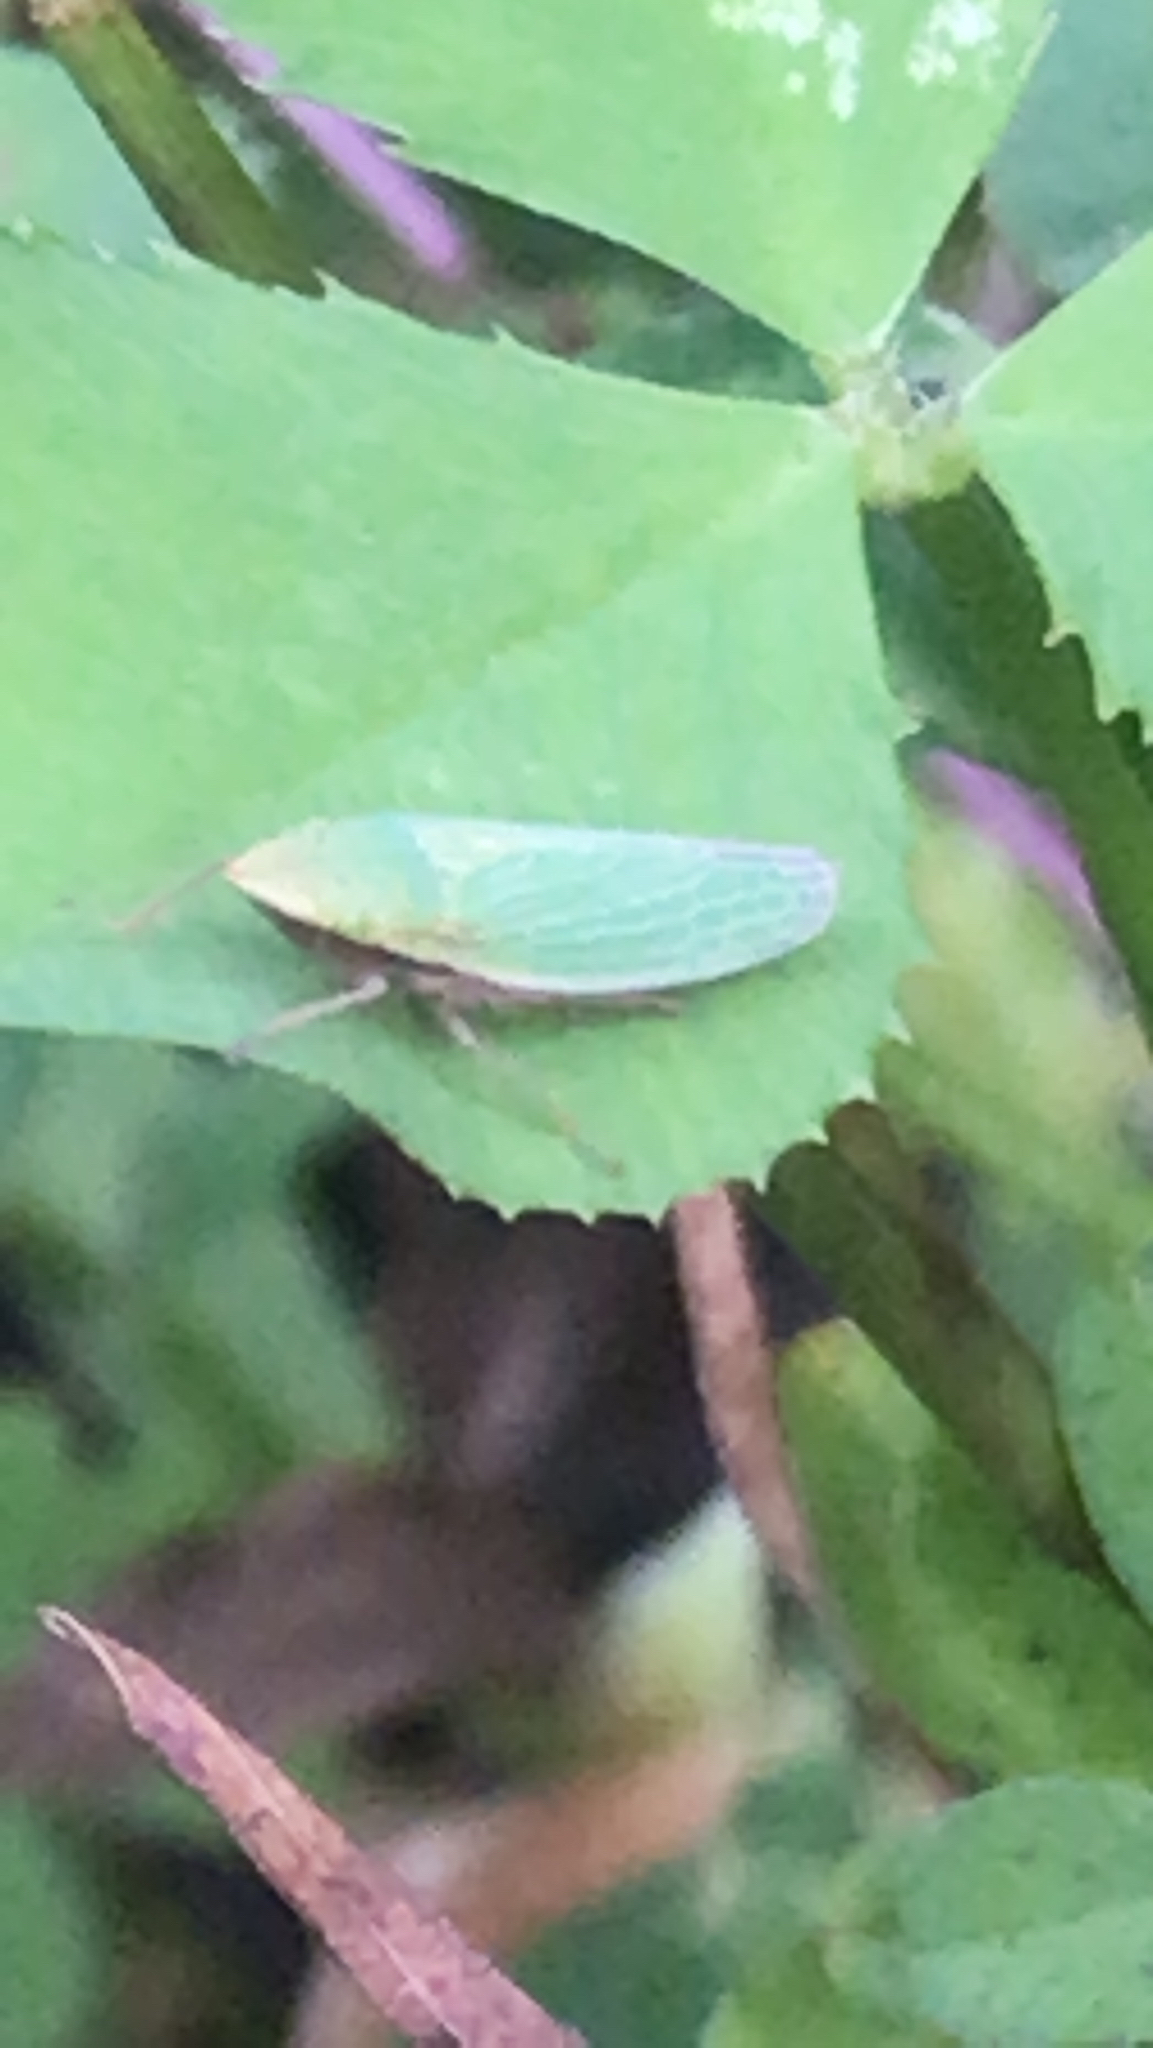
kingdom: Animalia
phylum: Arthropoda
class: Insecta
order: Hemiptera
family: Cicadellidae
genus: Draeculacephala
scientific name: Draeculacephala
